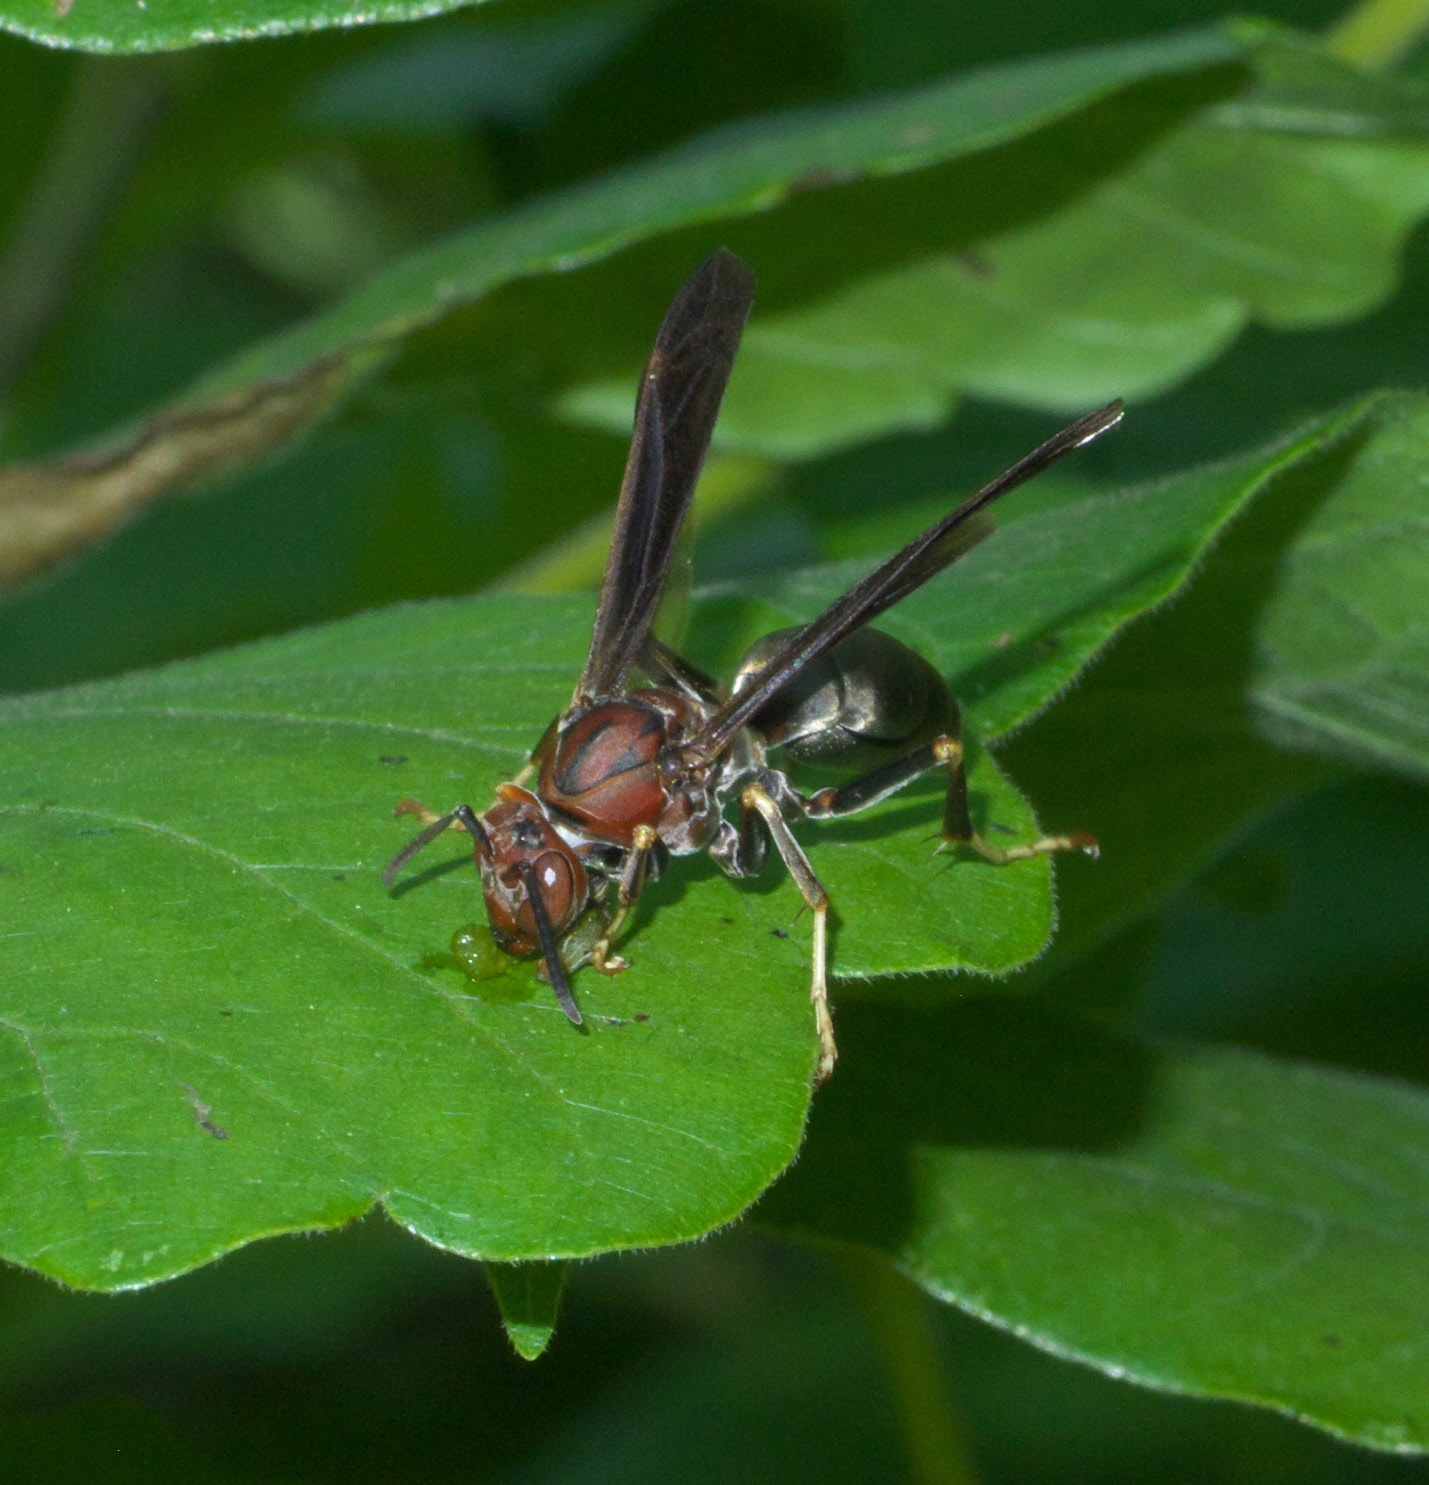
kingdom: Animalia
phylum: Arthropoda
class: Insecta
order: Hymenoptera
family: Eumenidae
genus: Polistes
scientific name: Polistes metricus
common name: Metric paper wasp
